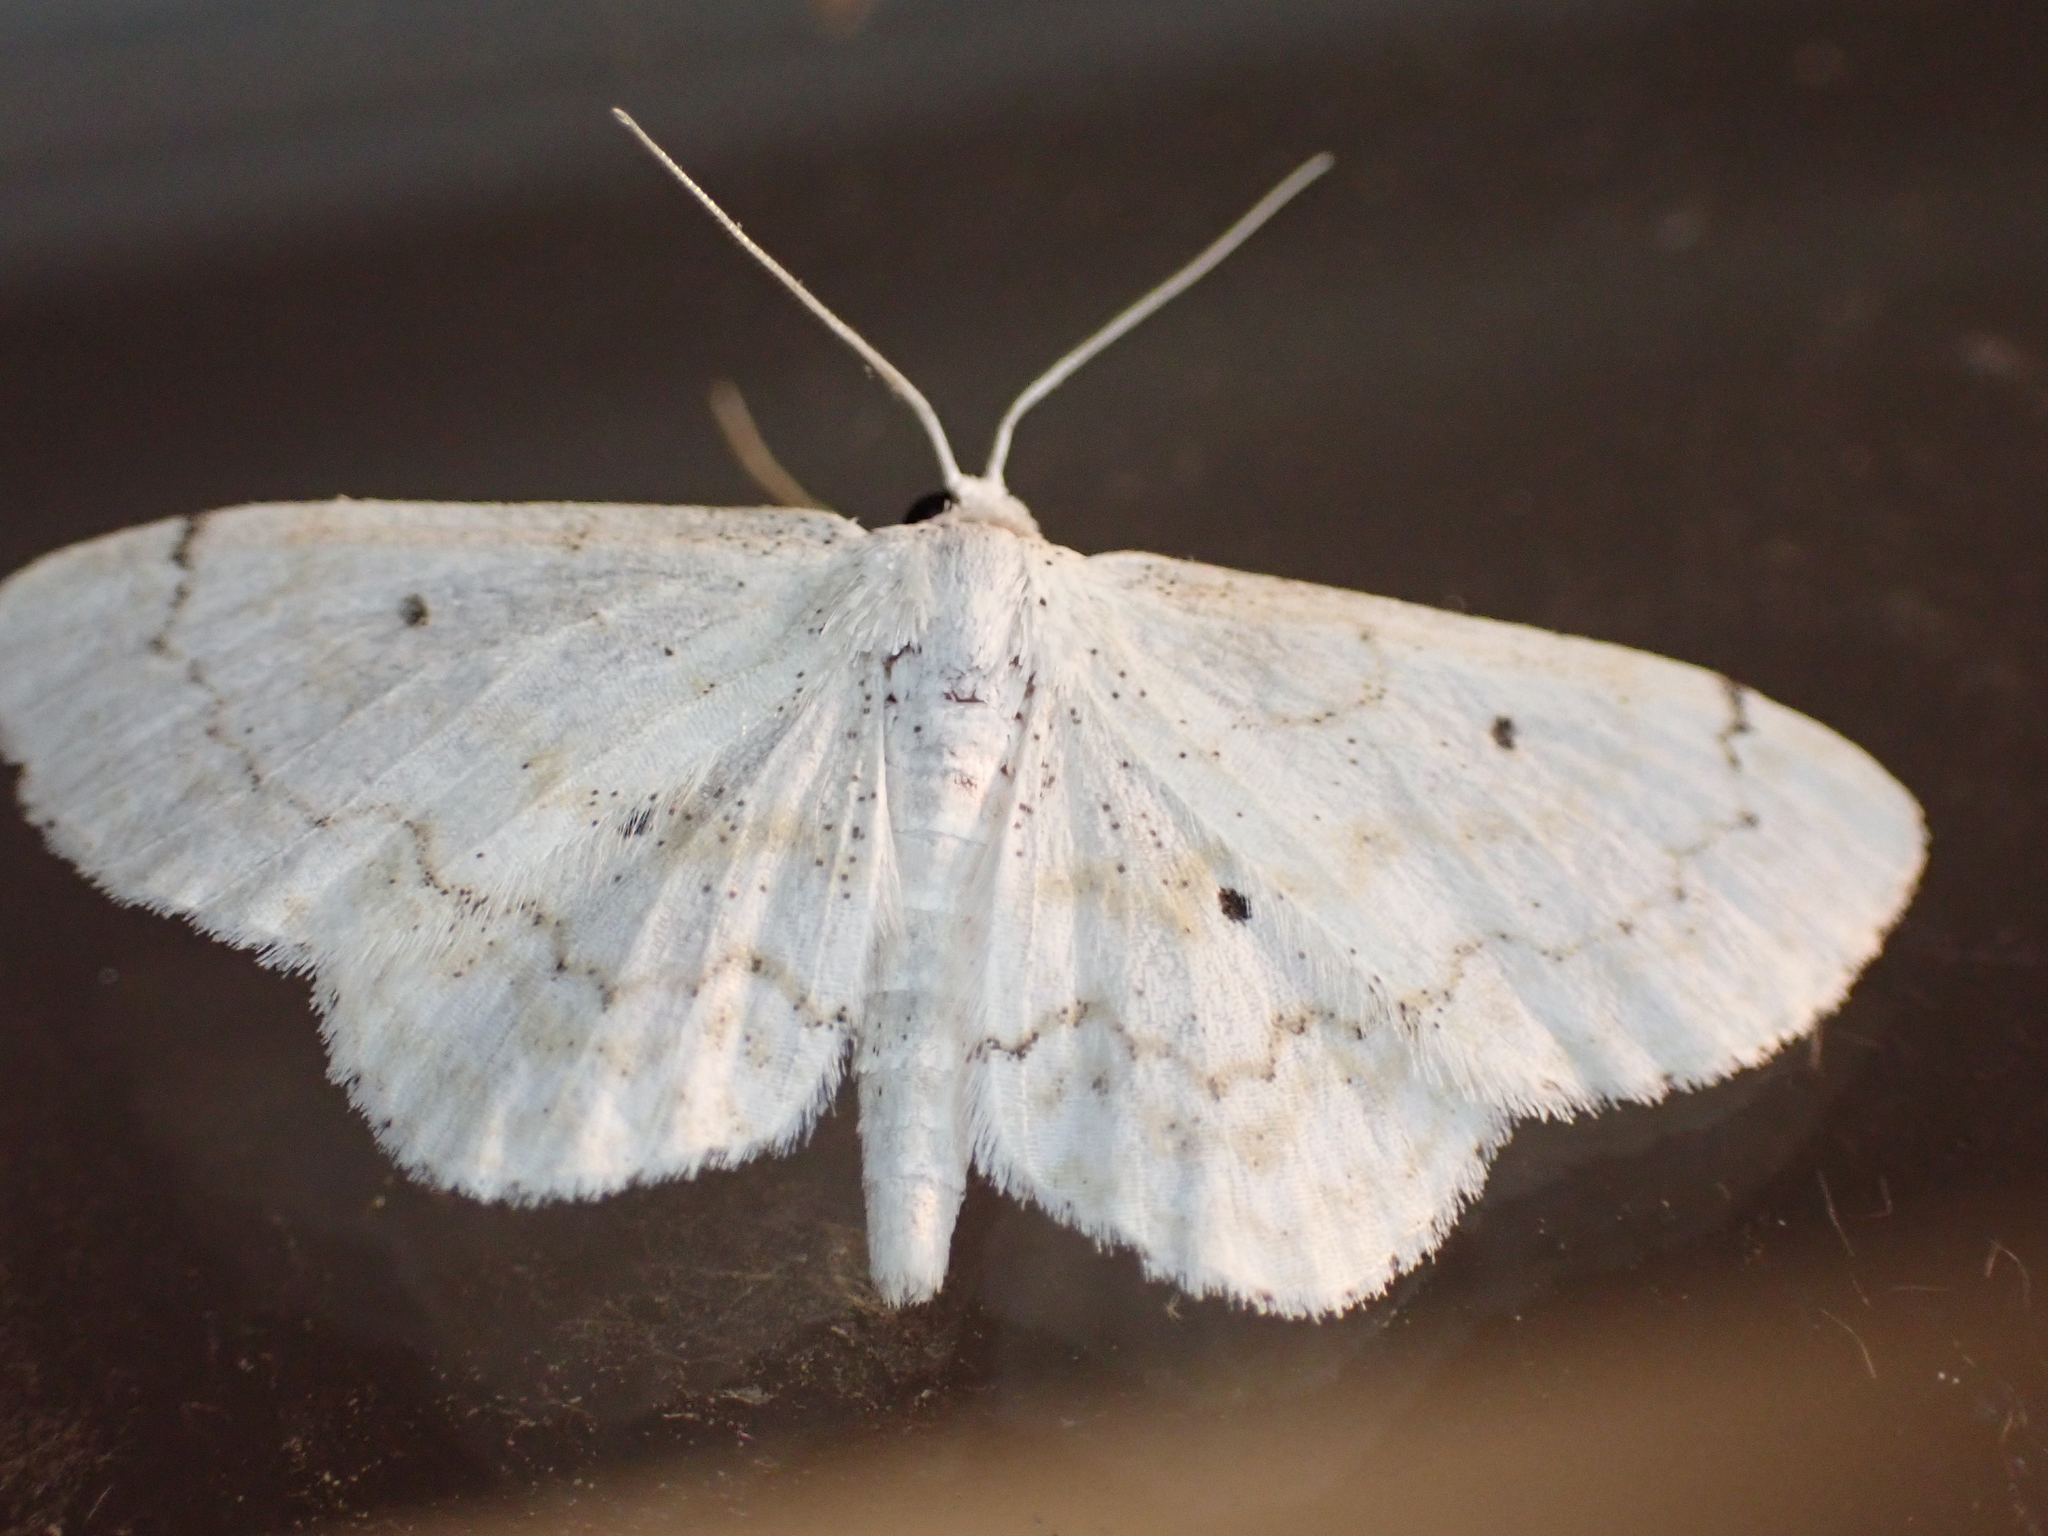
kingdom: Animalia
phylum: Arthropoda
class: Insecta
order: Lepidoptera
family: Geometridae
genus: Idaea
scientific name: Idaea obfusaria
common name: Rippled wave
